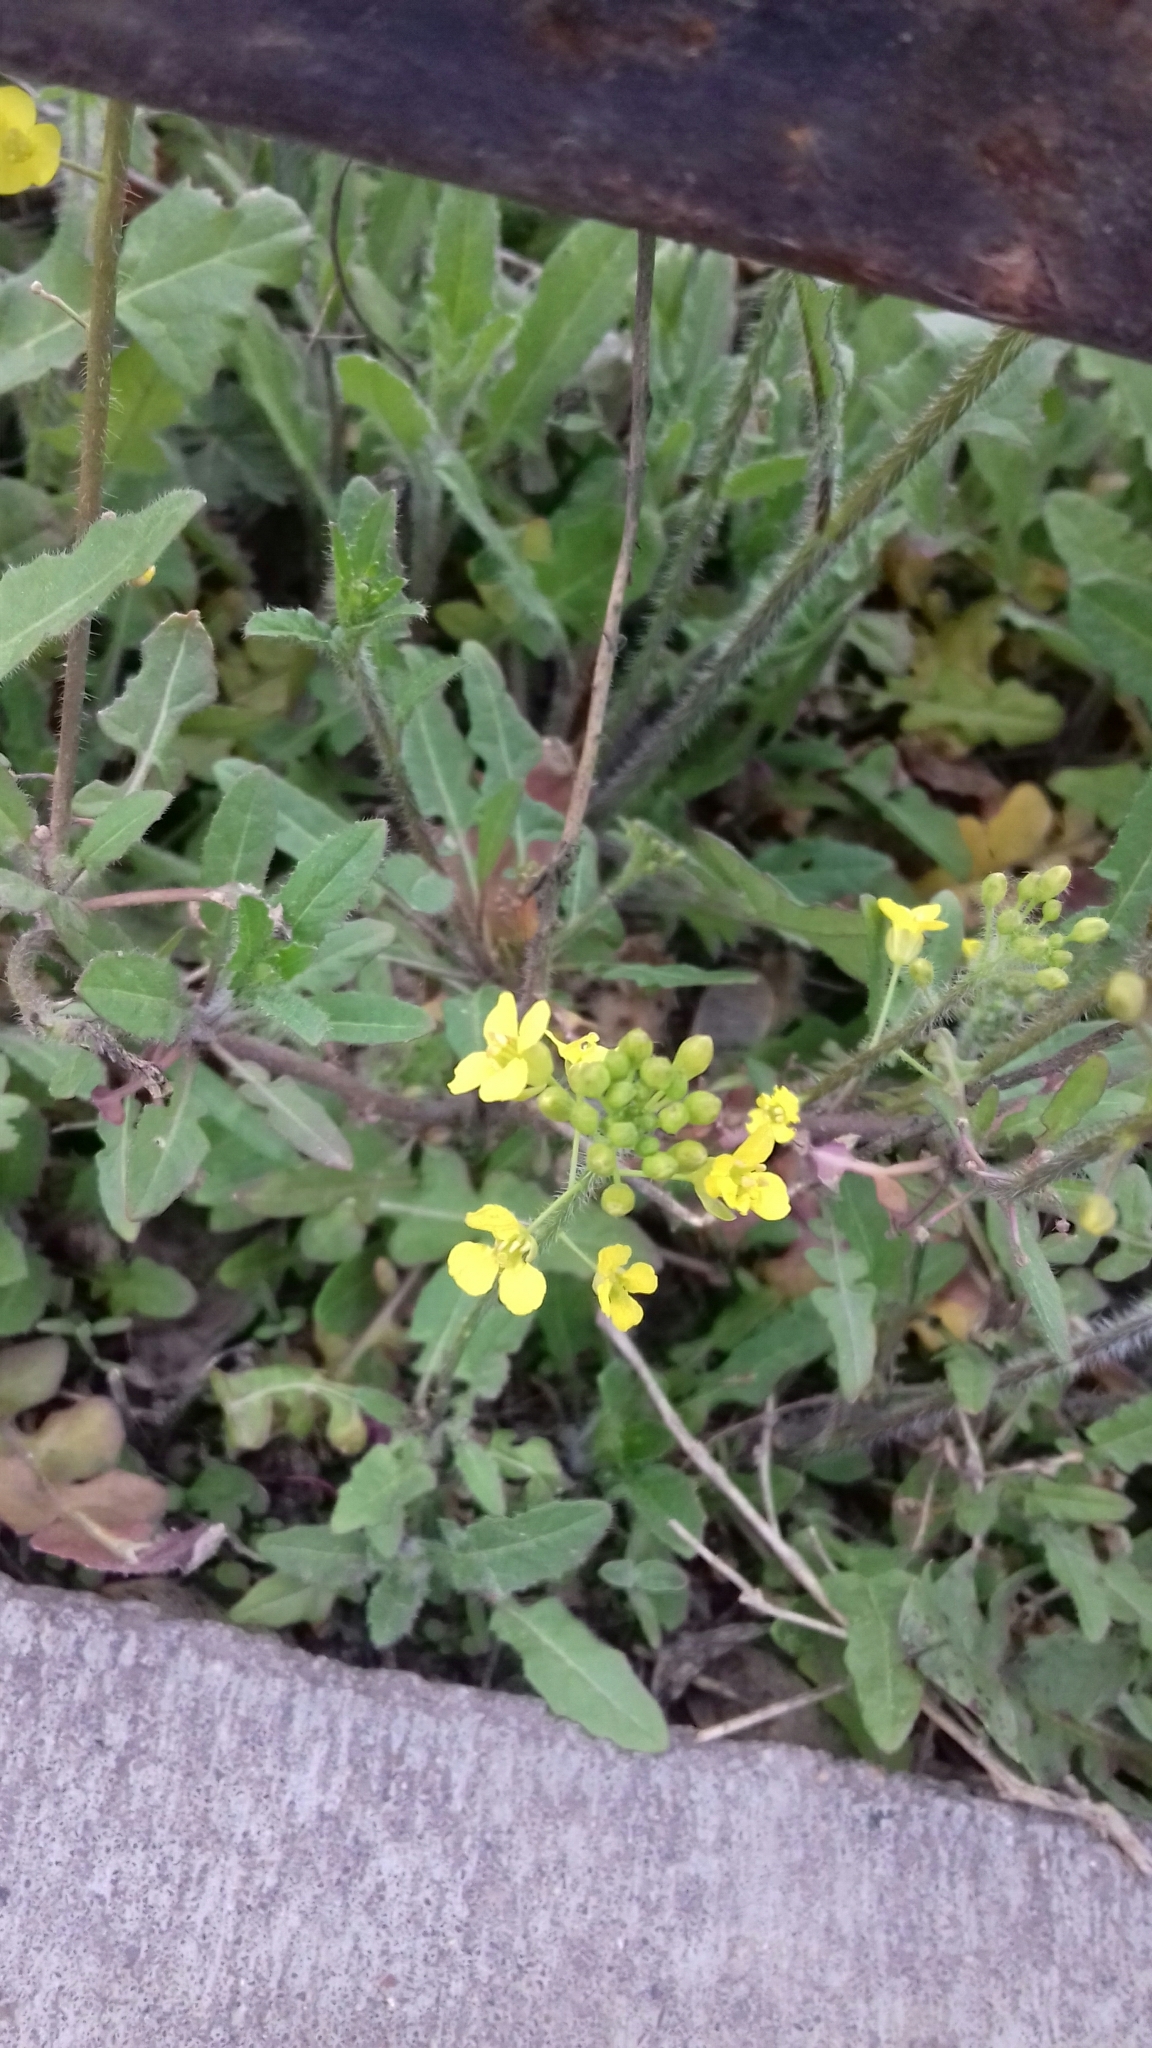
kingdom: Plantae
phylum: Tracheophyta
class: Magnoliopsida
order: Brassicales
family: Brassicaceae
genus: Sisymbrium
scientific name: Sisymbrium loeselii
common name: False london-rocket
